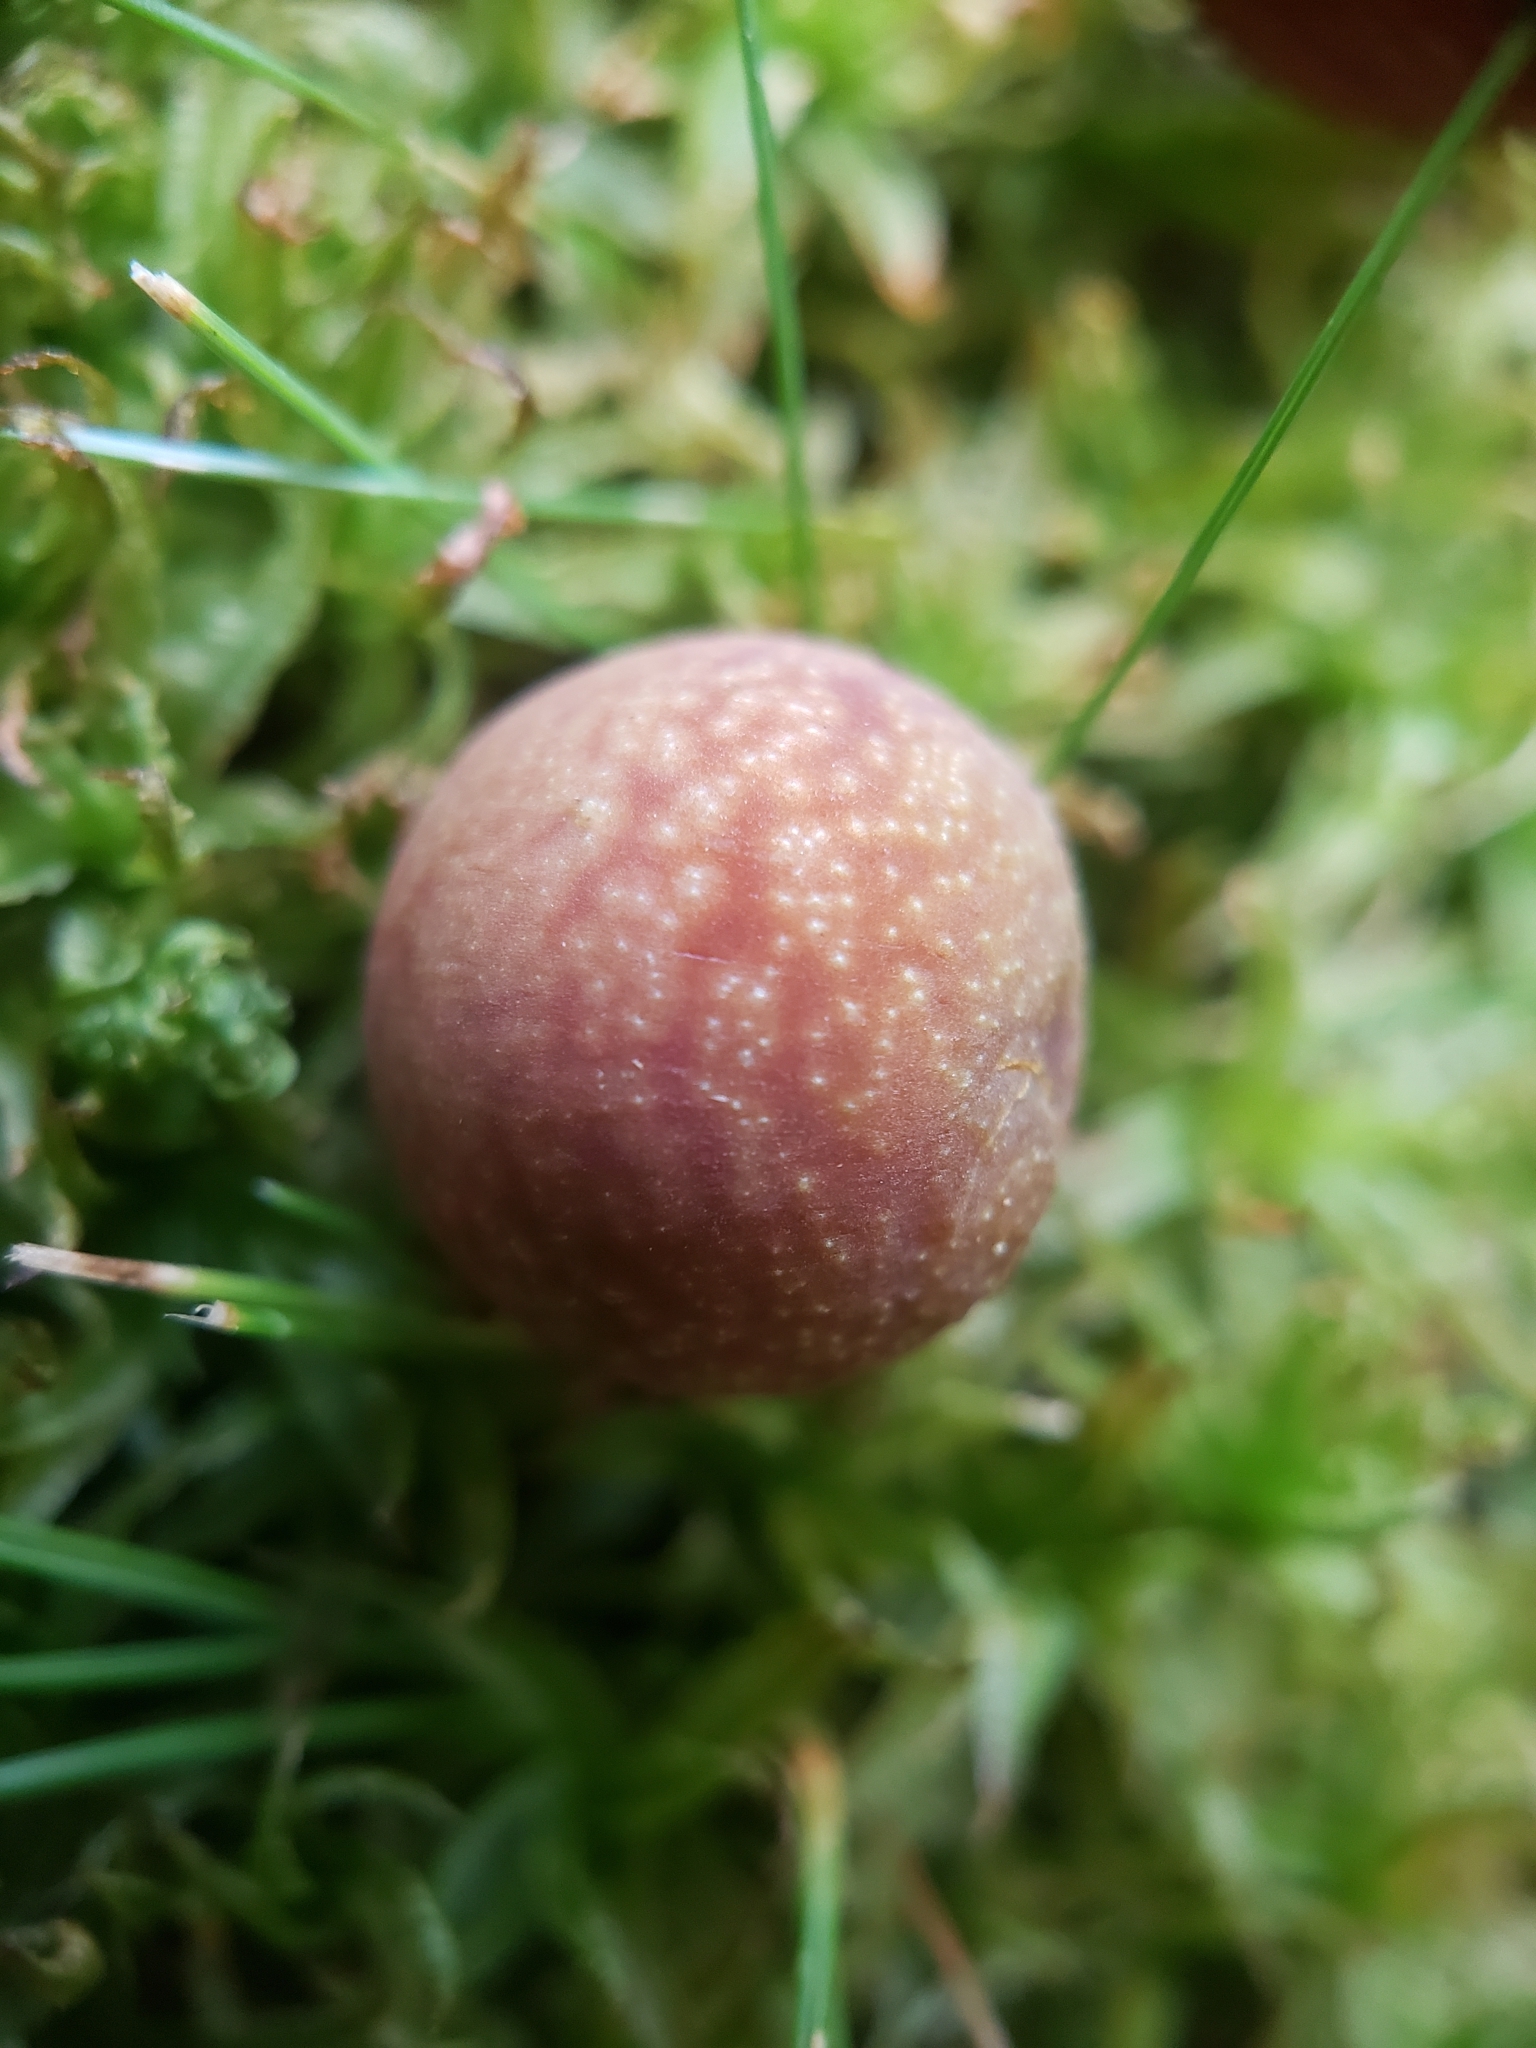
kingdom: Animalia
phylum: Arthropoda
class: Insecta
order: Hymenoptera
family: Cynipidae
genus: Kokkocynips
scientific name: Kokkocynips imbricariae
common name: Banded bullet gall wasp
